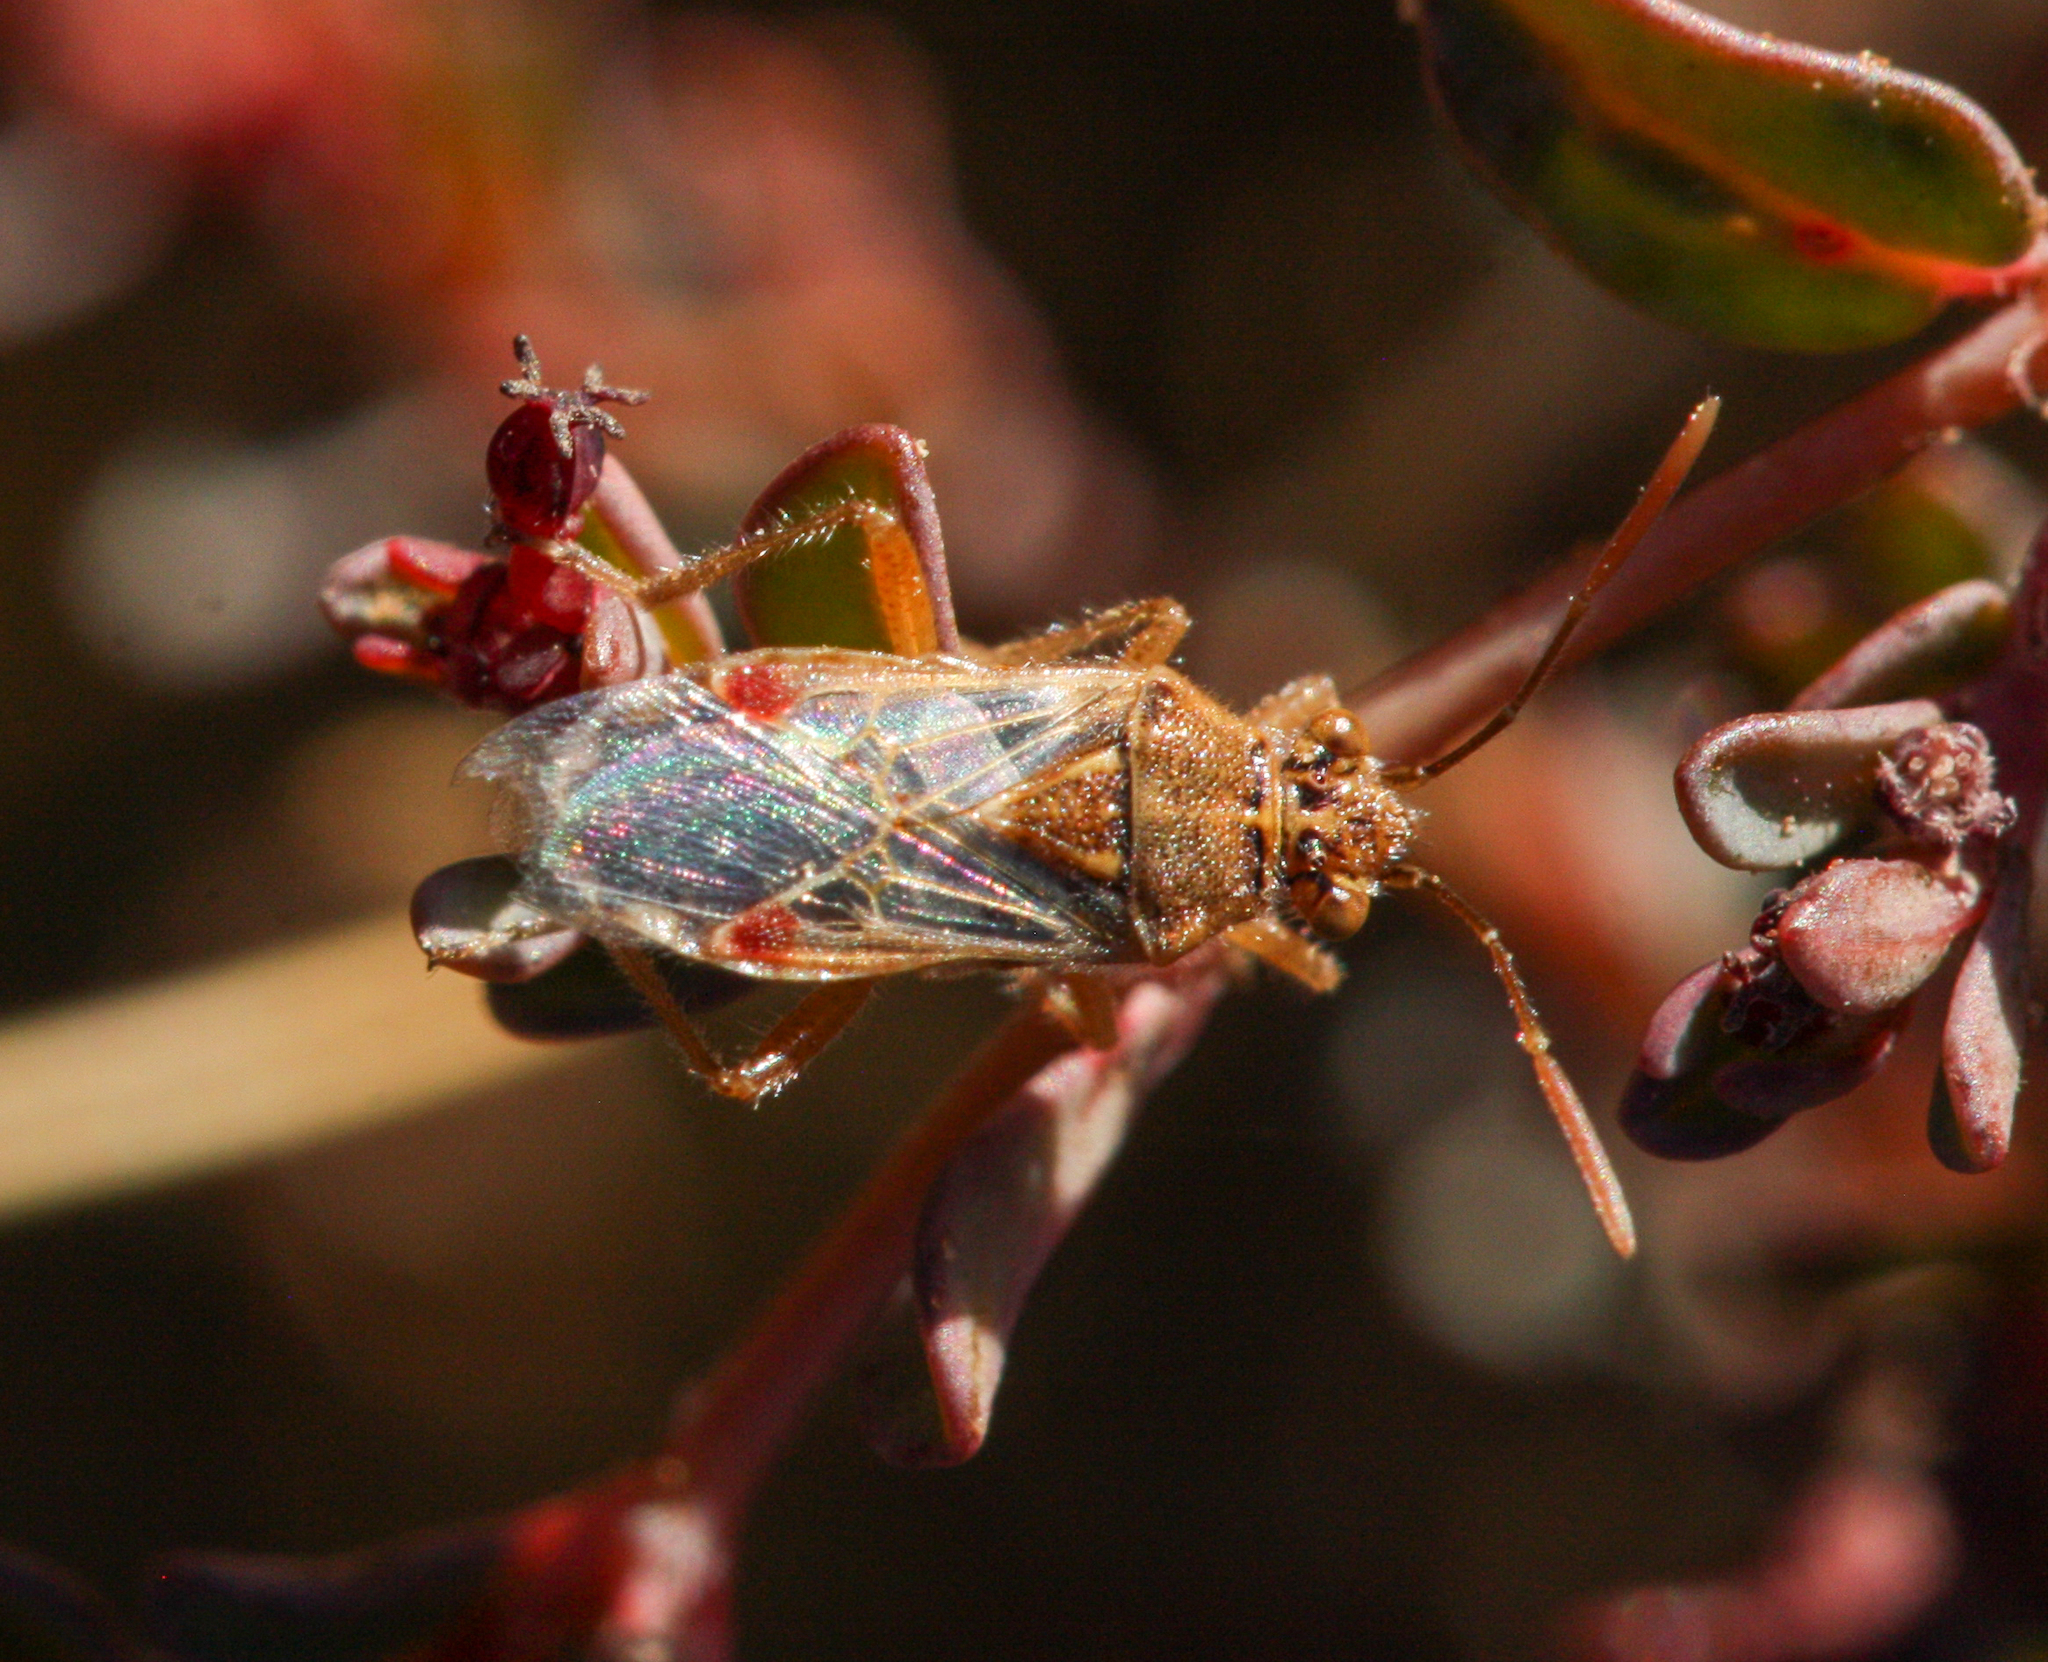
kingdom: Animalia
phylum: Arthropoda
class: Insecta
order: Hemiptera
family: Rhopalidae
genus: Liorhyssus
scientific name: Liorhyssus hyalinus
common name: Scentless plant bug
